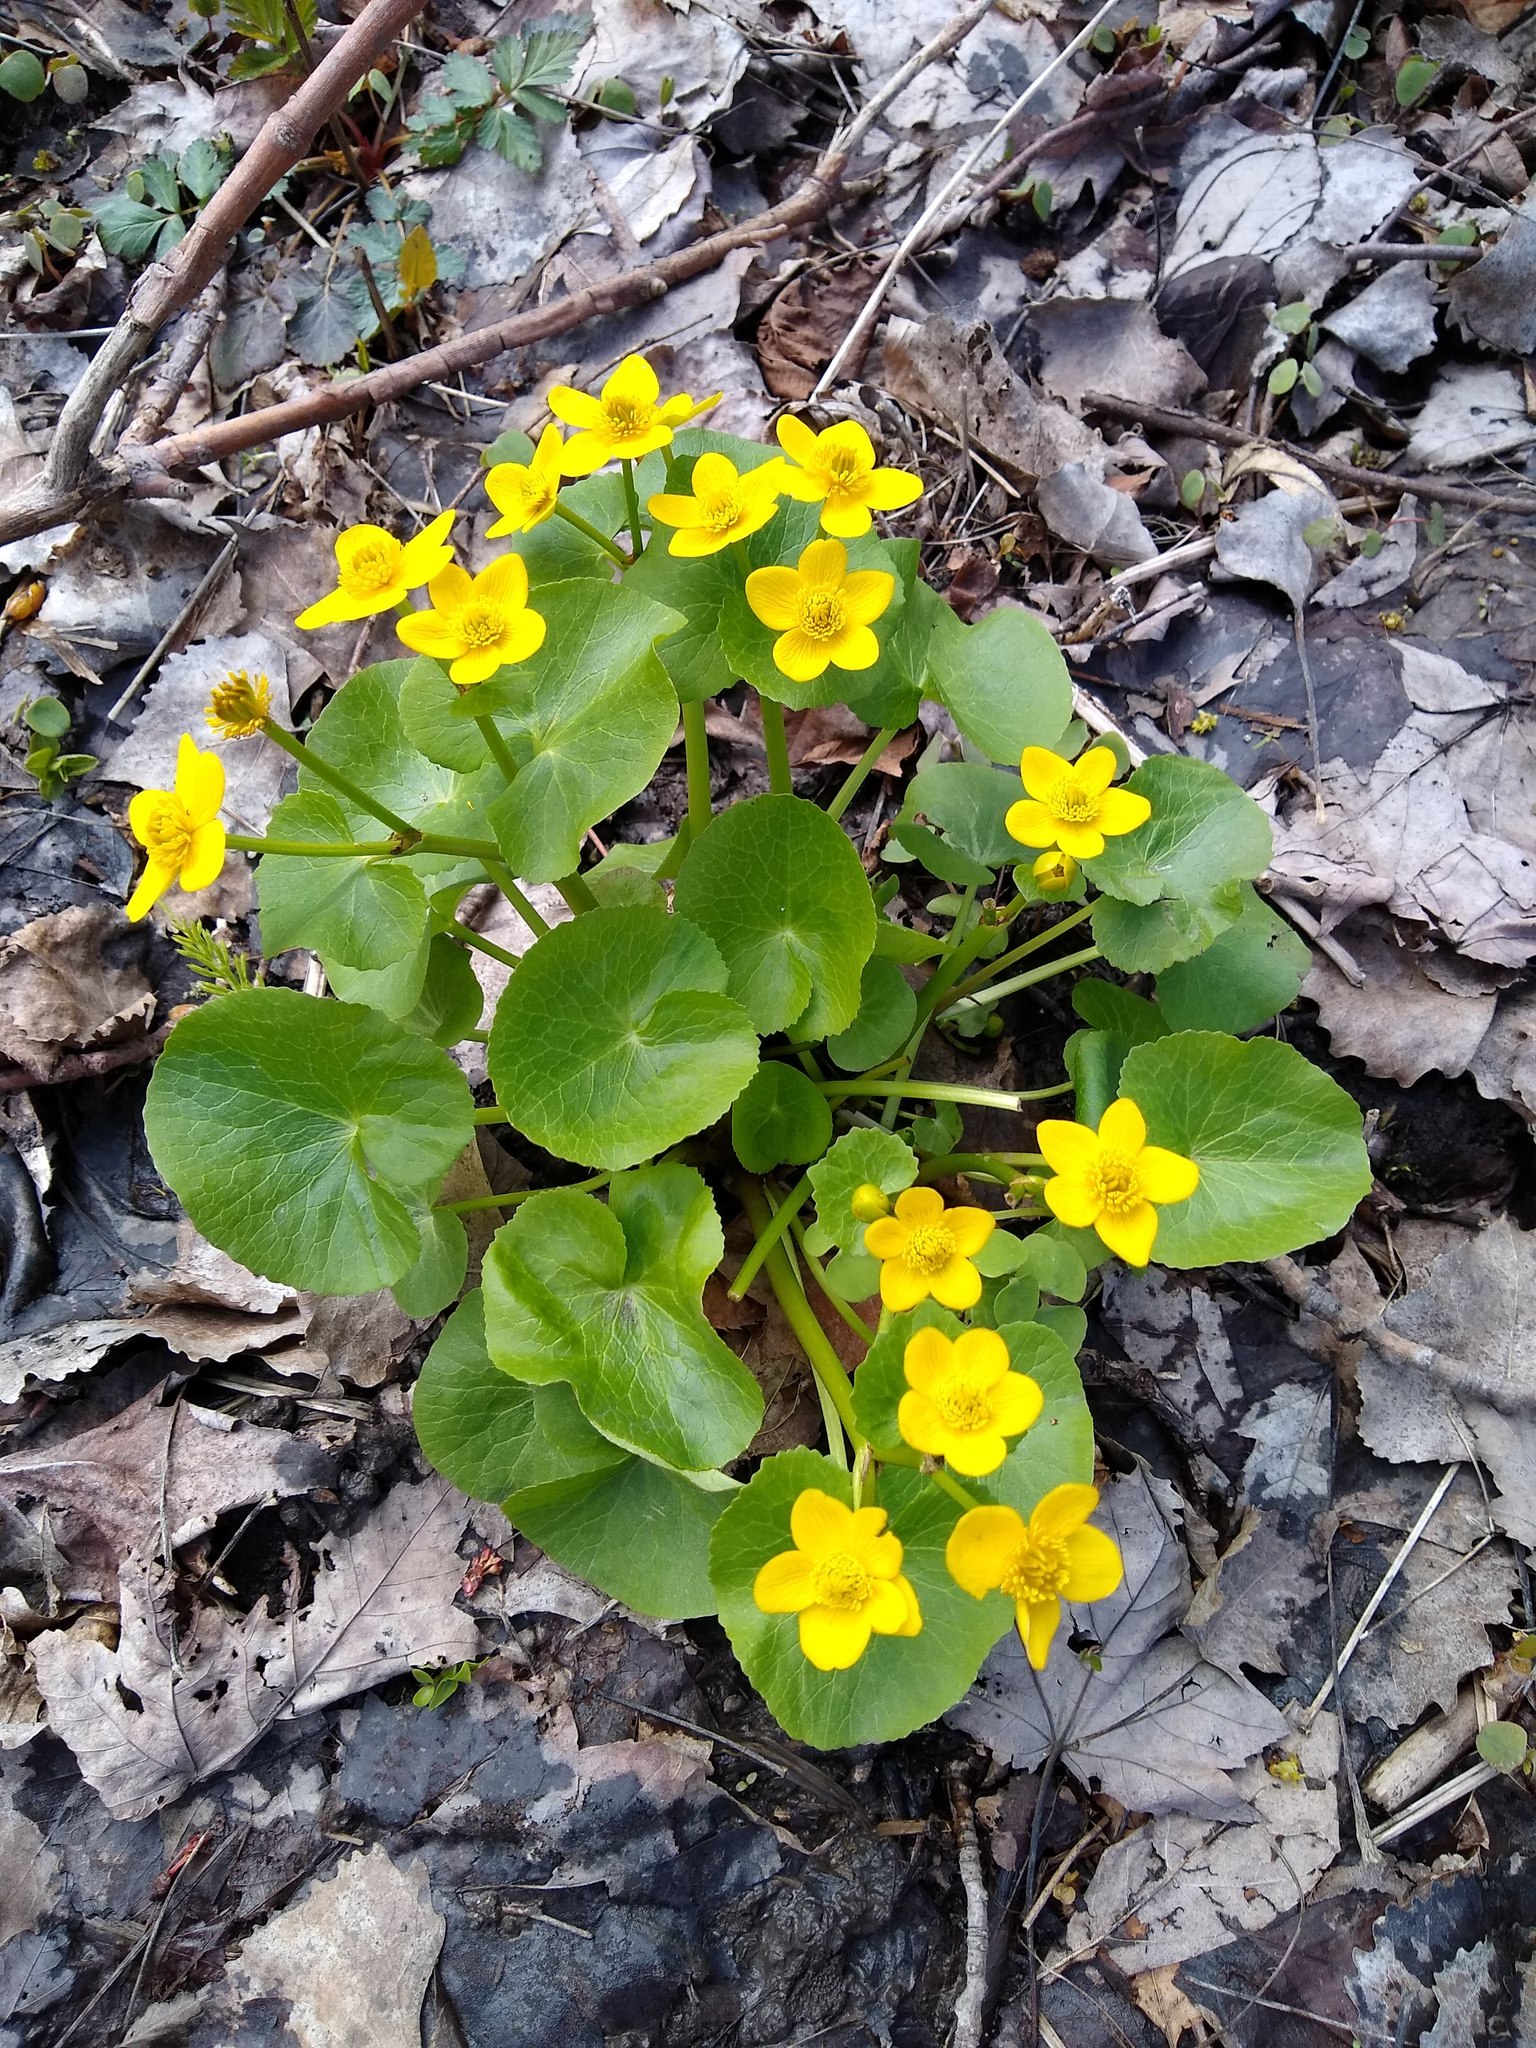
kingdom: Plantae
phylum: Tracheophyta
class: Magnoliopsida
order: Ranunculales
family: Ranunculaceae
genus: Caltha
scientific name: Caltha palustris
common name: Marsh marigold
